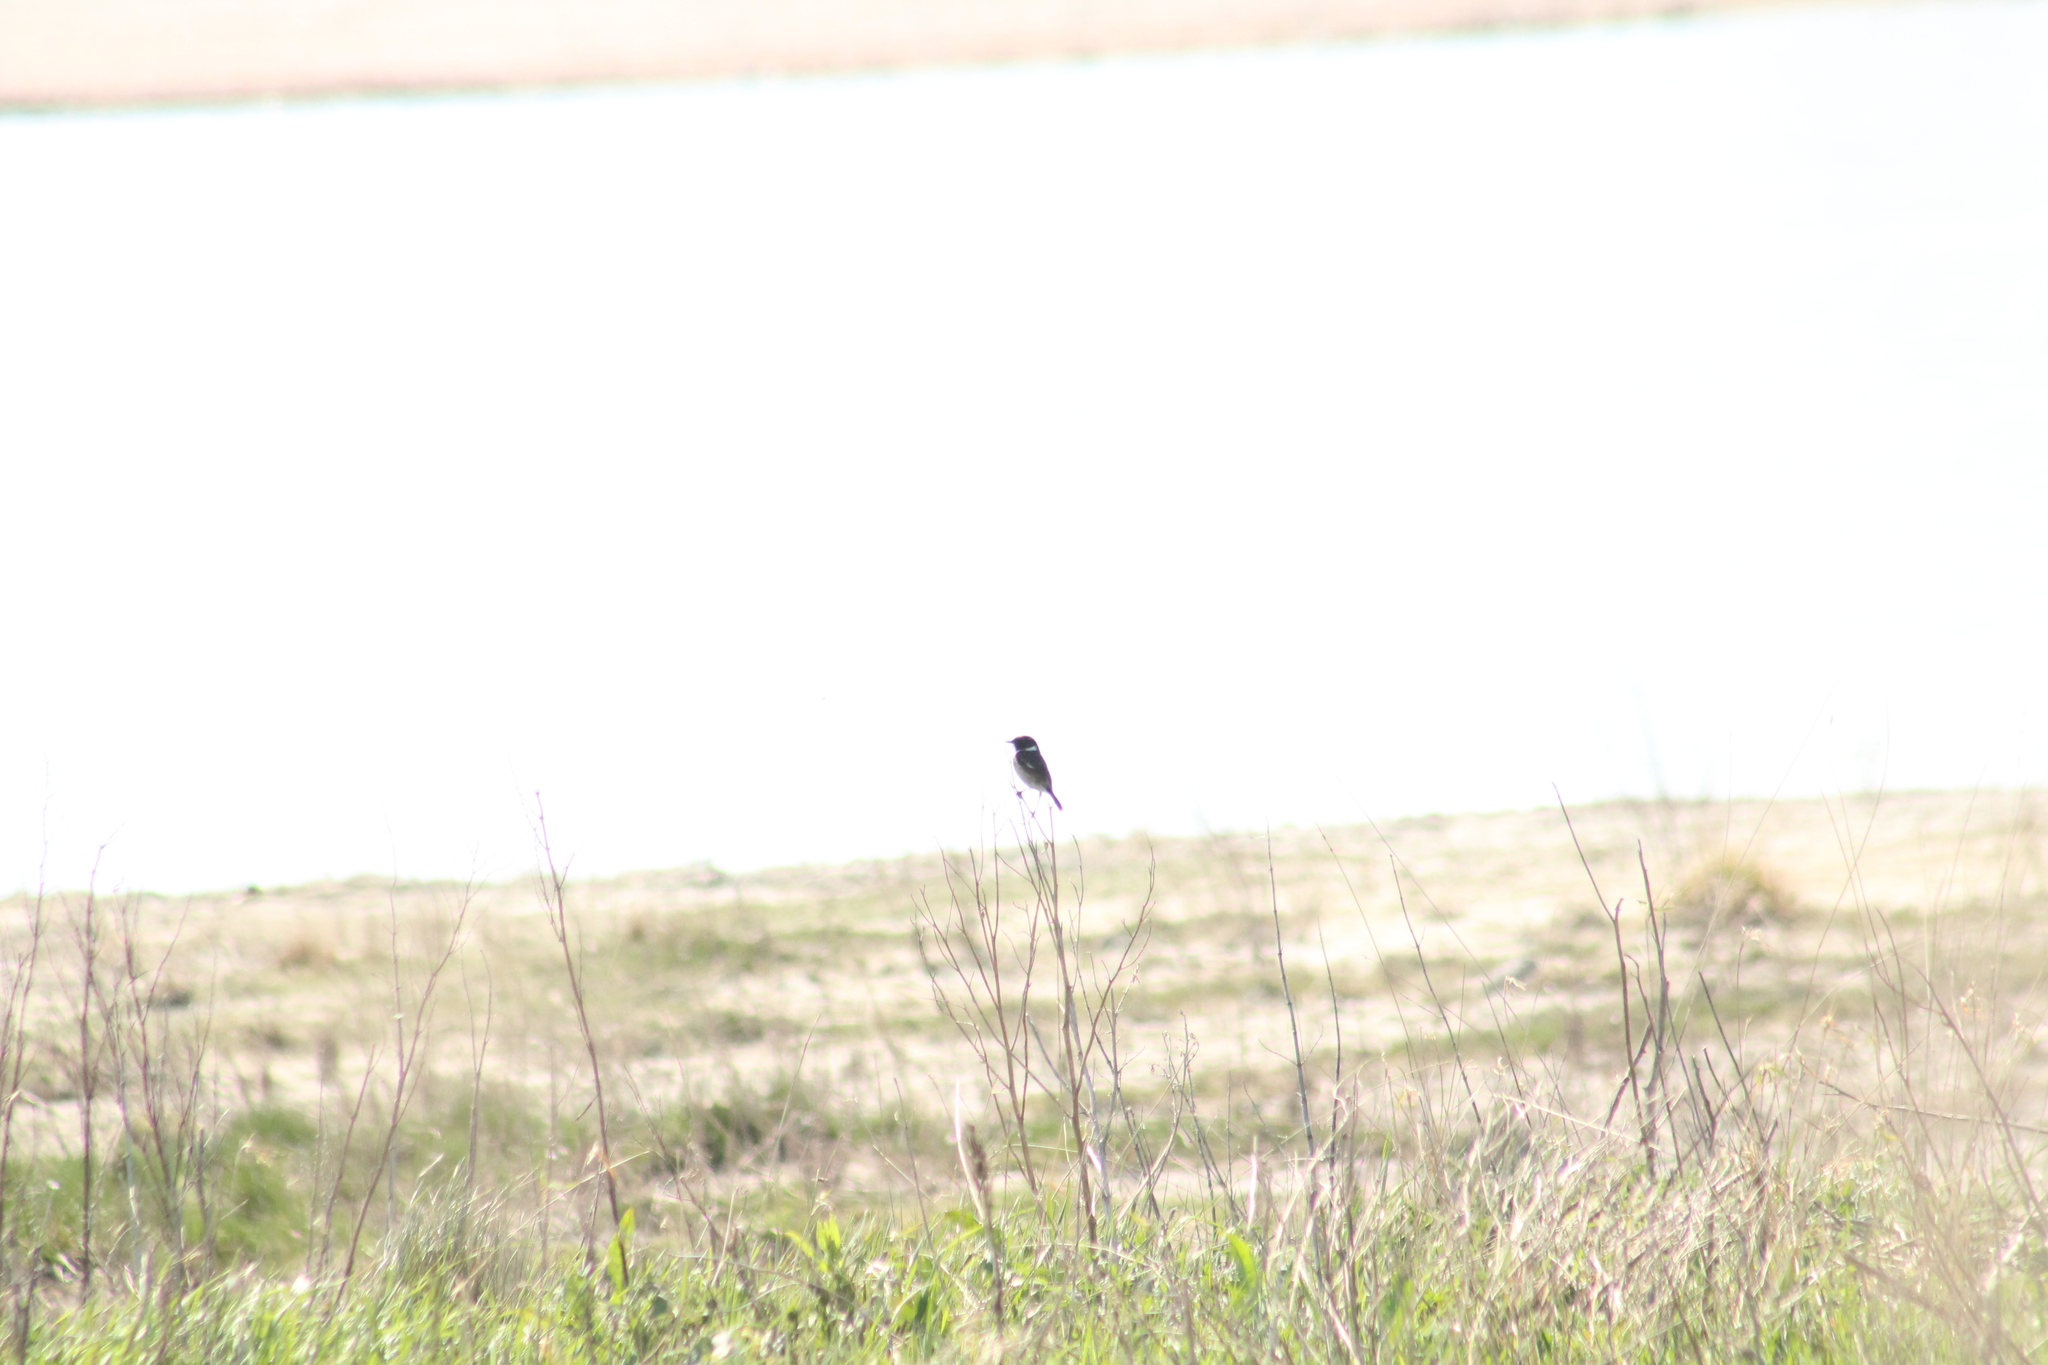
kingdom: Animalia
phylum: Chordata
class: Aves
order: Passeriformes
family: Muscicapidae
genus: Saxicola
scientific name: Saxicola rubicola
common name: European stonechat
